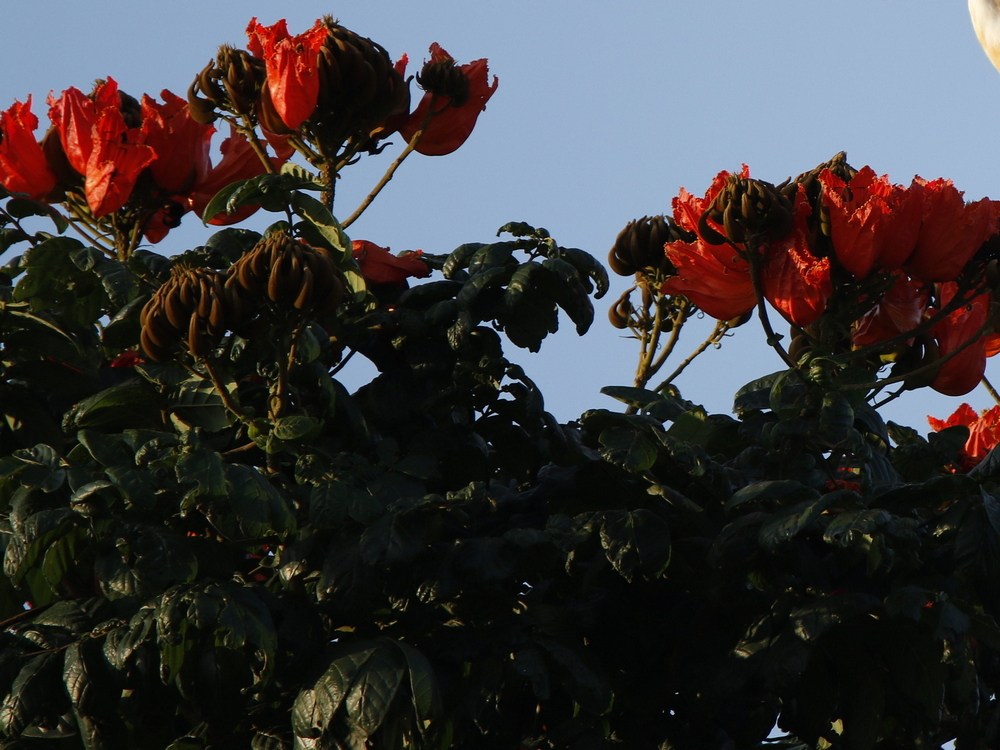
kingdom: Plantae
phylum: Tracheophyta
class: Magnoliopsida
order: Lamiales
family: Bignoniaceae
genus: Spathodea
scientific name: Spathodea campanulata
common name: African tuliptree
